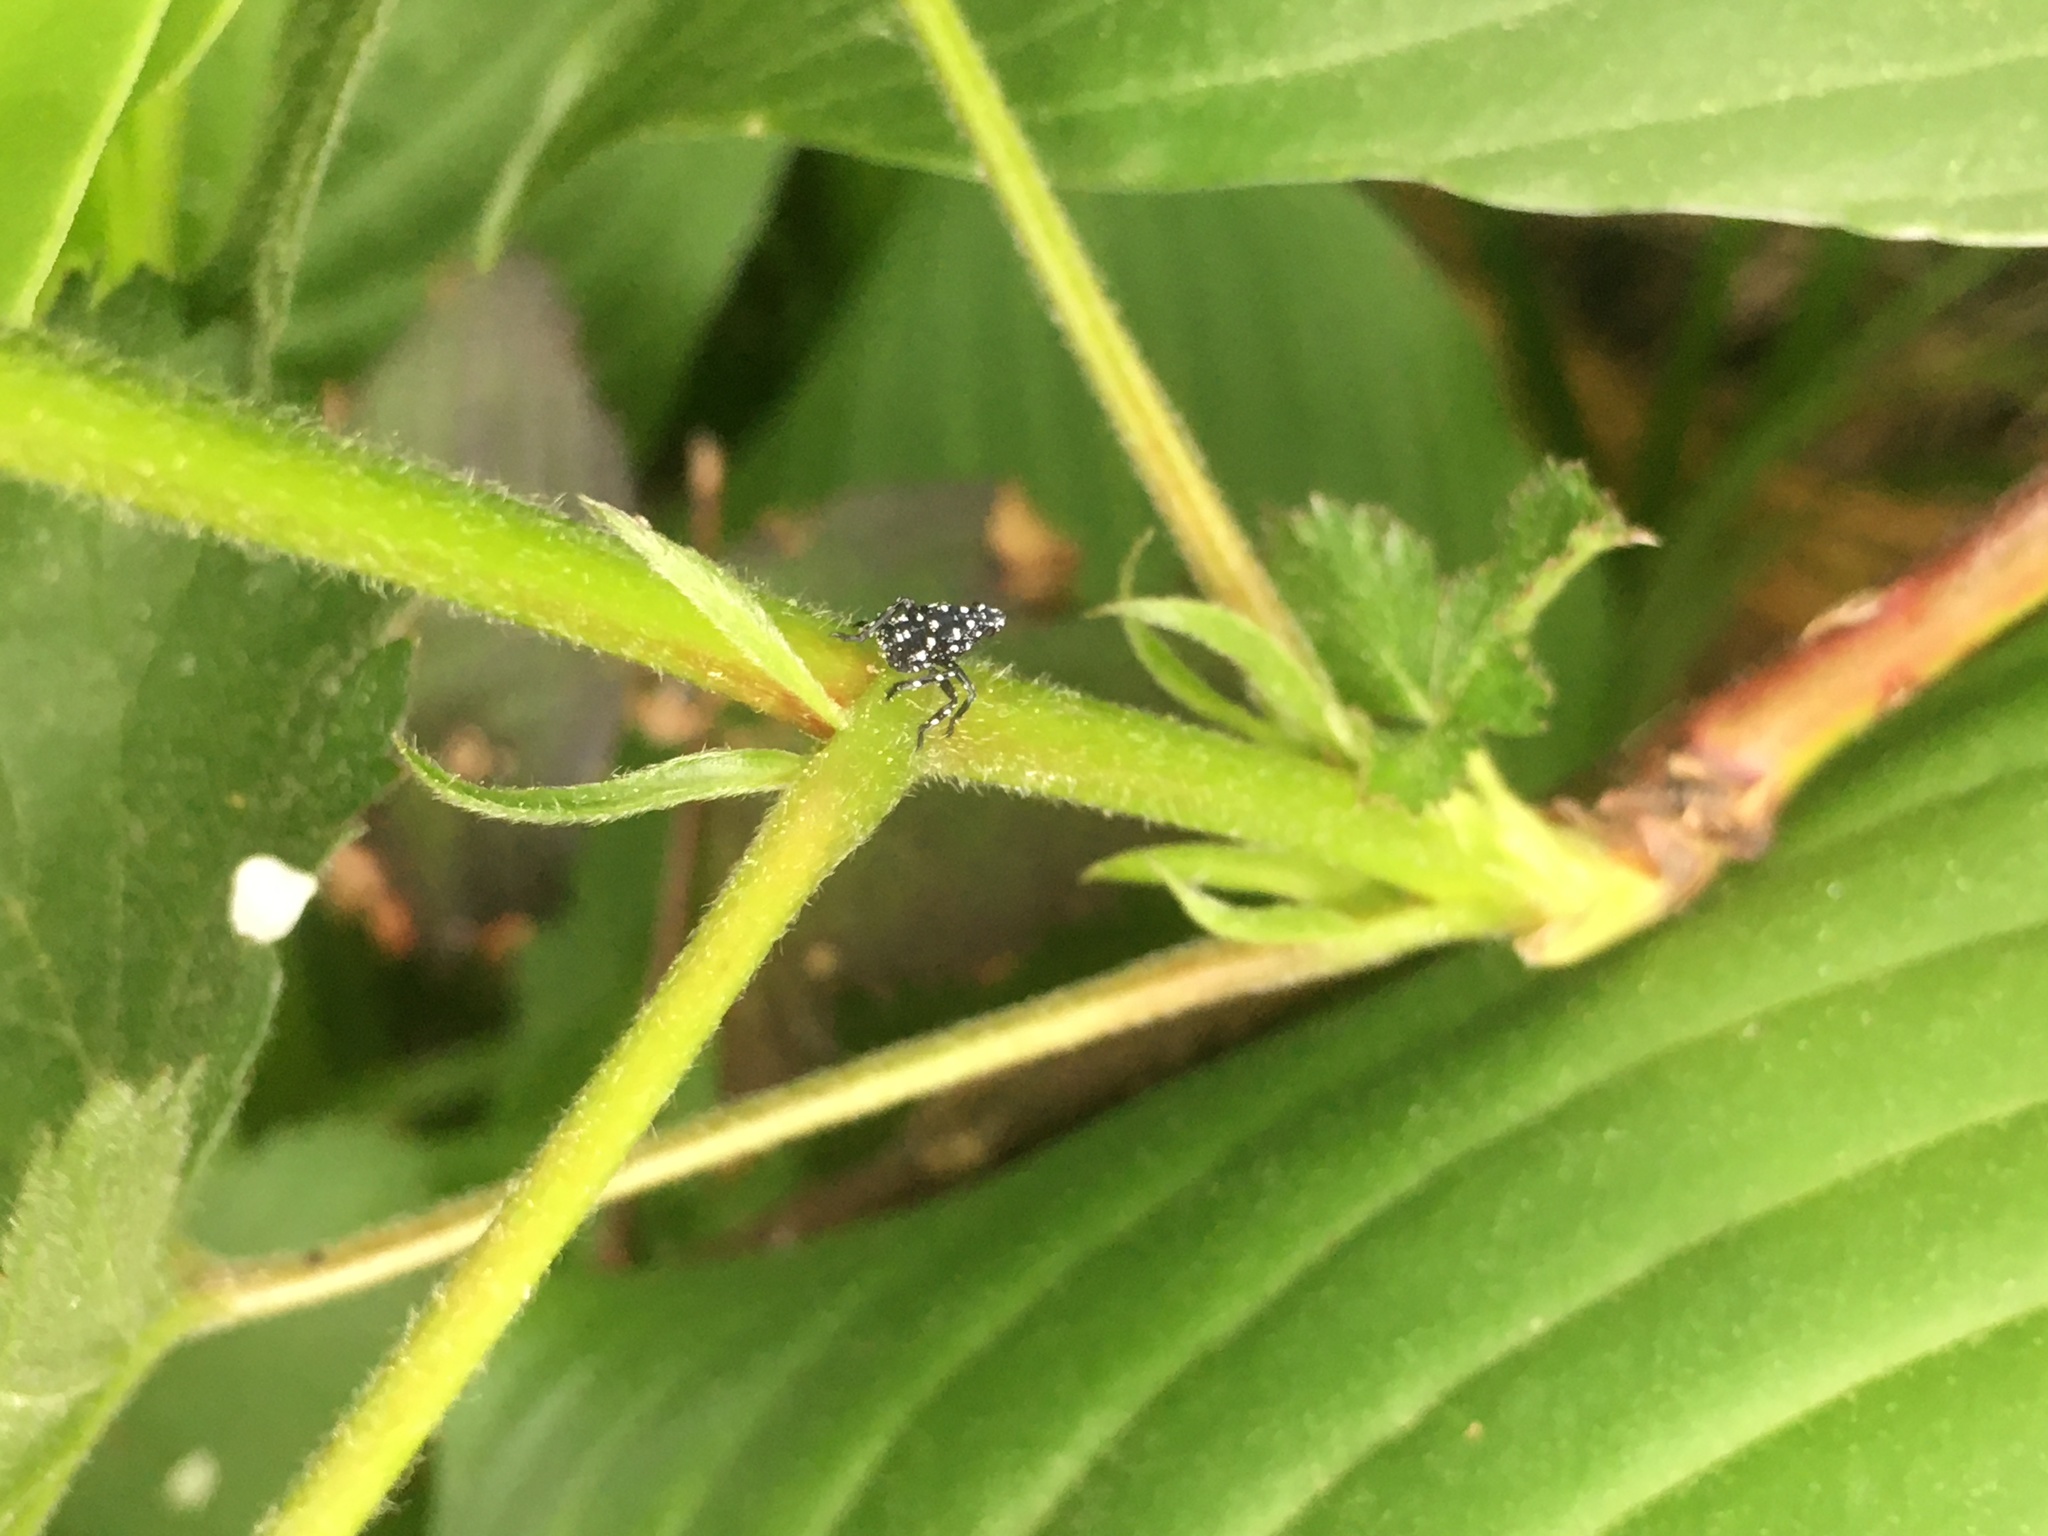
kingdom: Animalia
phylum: Arthropoda
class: Insecta
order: Hemiptera
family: Fulgoridae
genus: Lycorma
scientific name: Lycorma delicatula
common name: Spotted lanternfly
